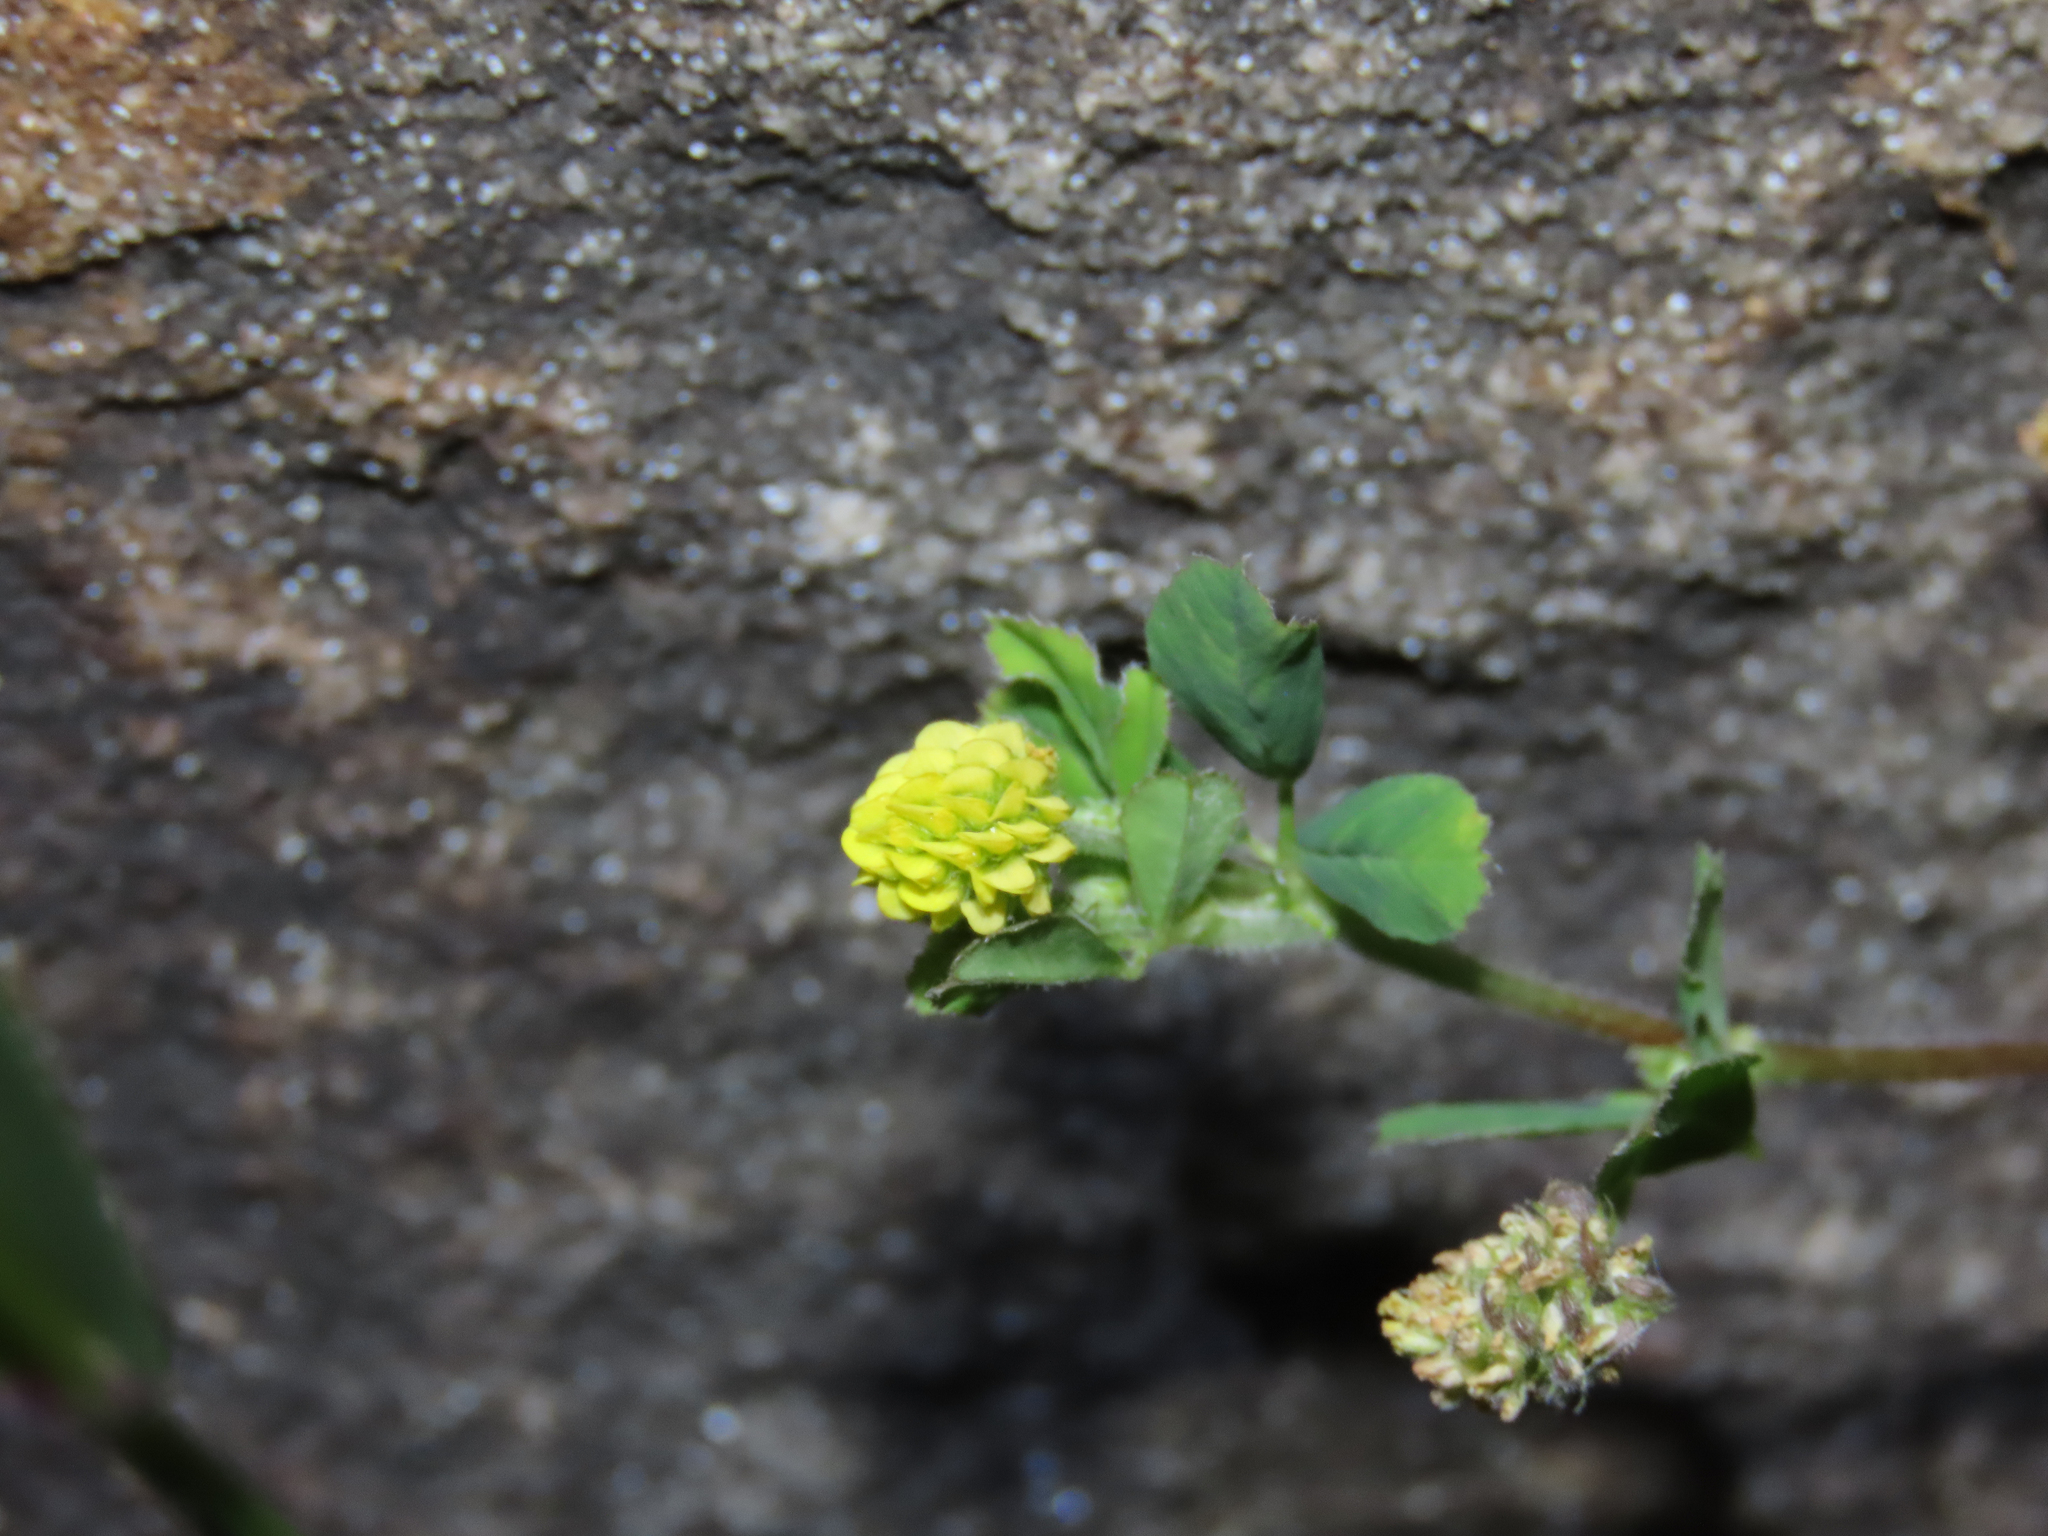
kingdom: Plantae
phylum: Tracheophyta
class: Magnoliopsida
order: Fabales
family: Fabaceae
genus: Medicago
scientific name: Medicago lupulina
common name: Black medick
